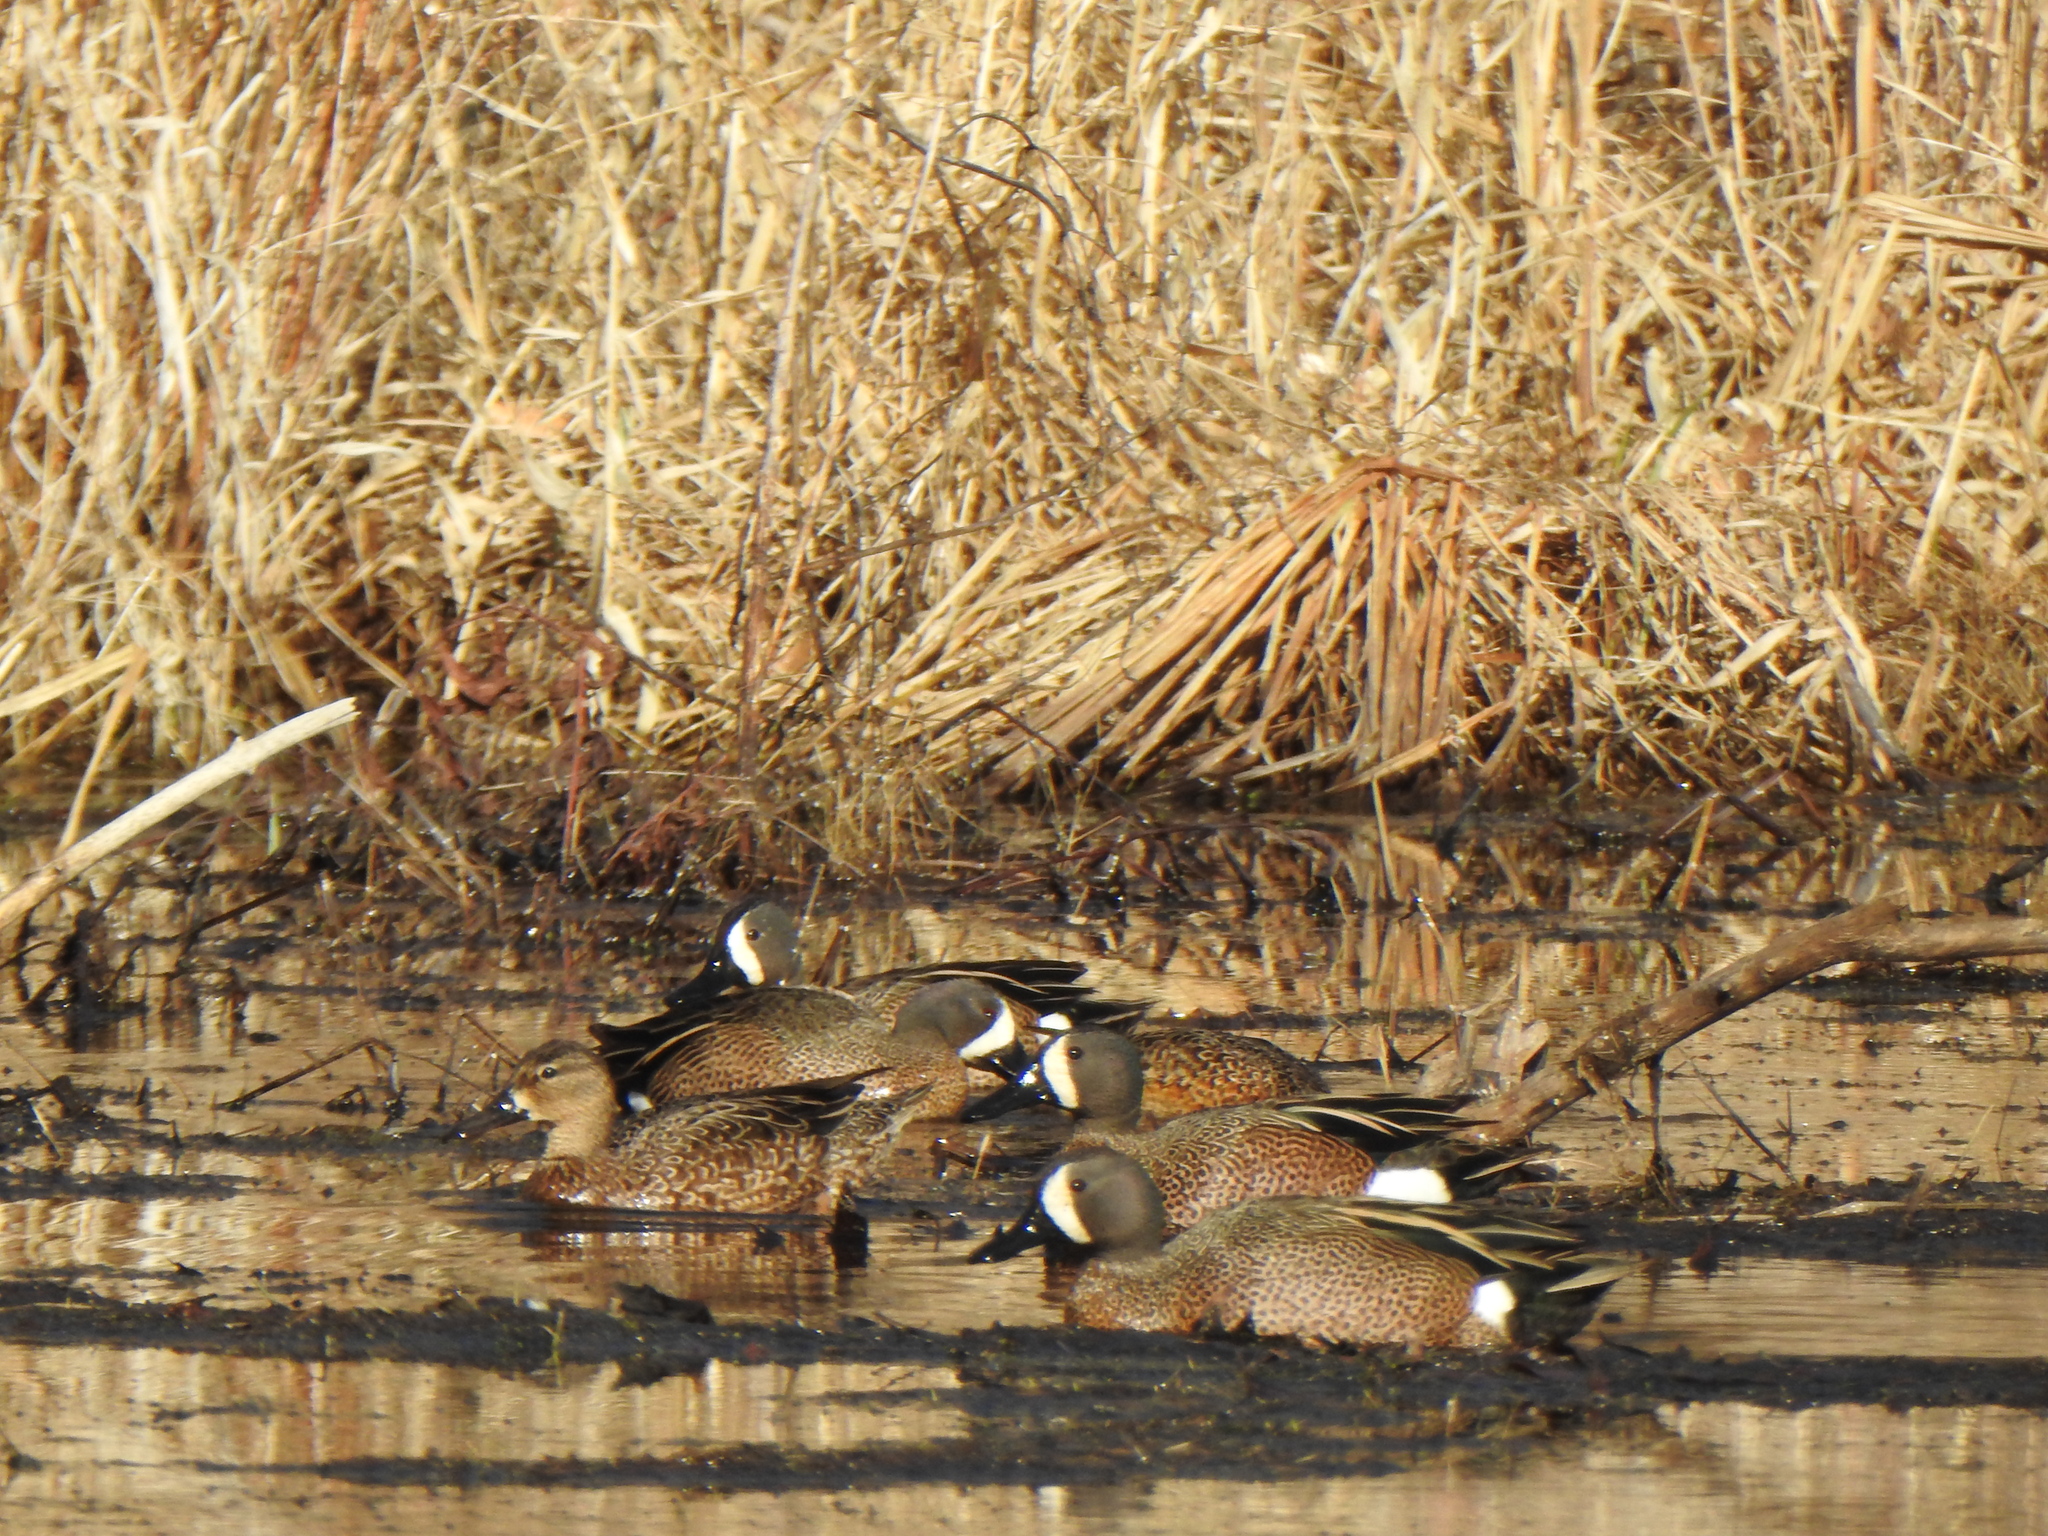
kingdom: Animalia
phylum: Chordata
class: Aves
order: Anseriformes
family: Anatidae
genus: Spatula
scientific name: Spatula discors
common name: Blue-winged teal
